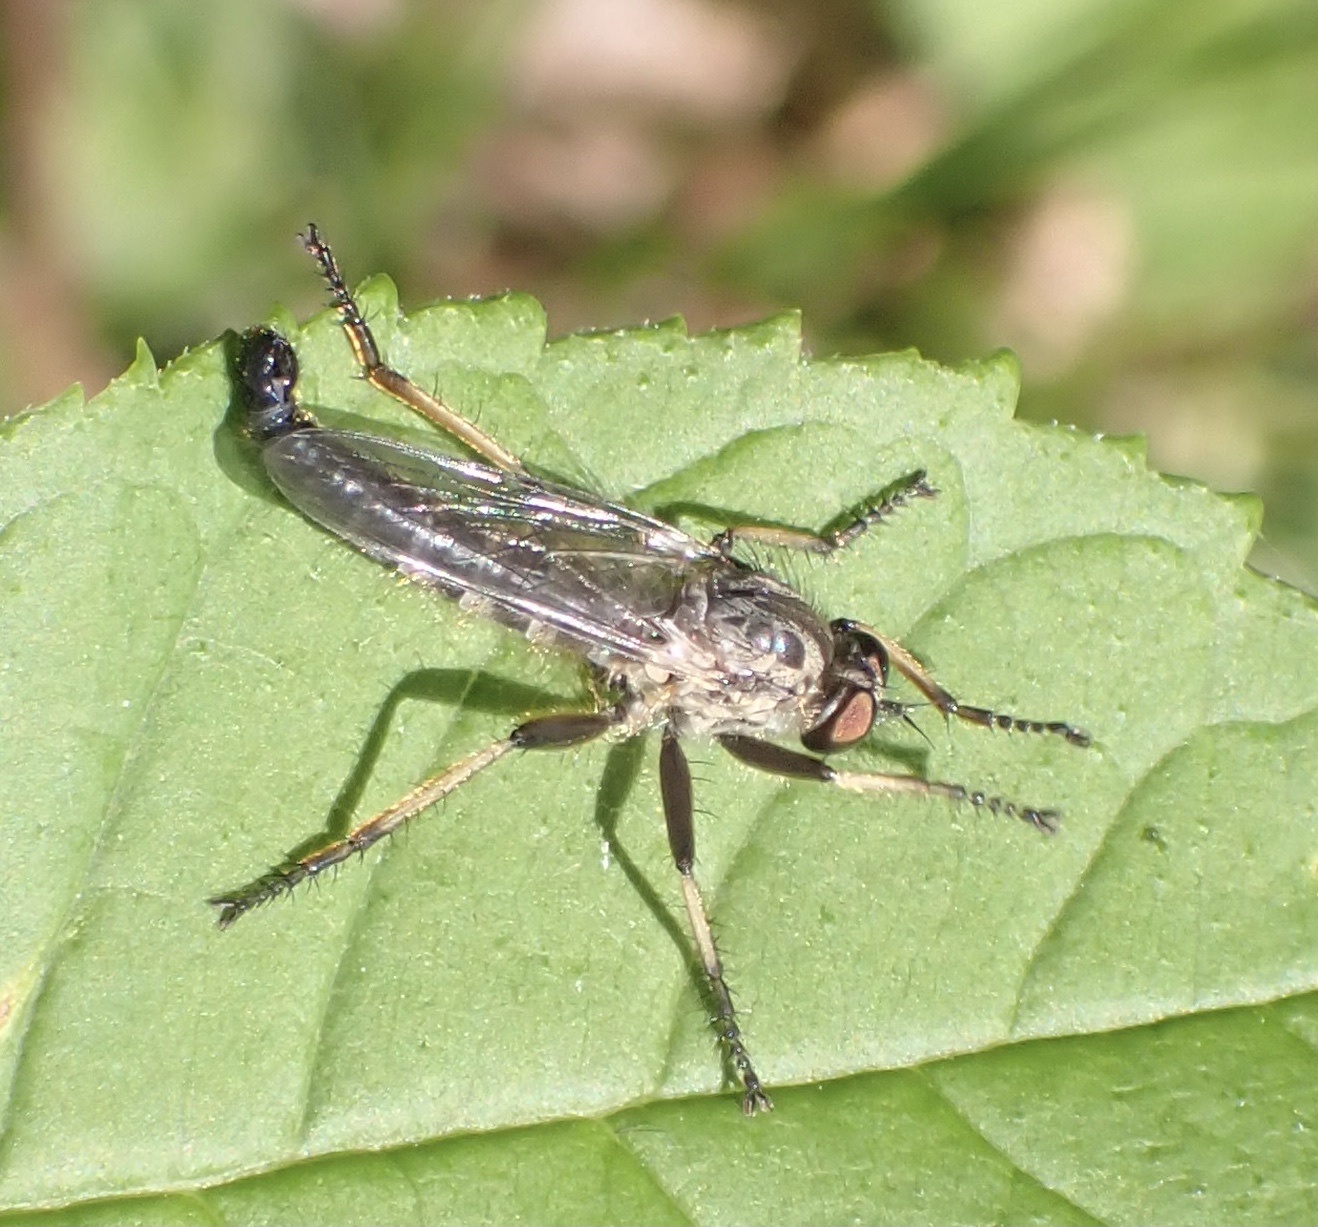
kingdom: Animalia
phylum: Arthropoda
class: Insecta
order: Diptera
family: Asilidae
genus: Neoitamus
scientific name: Neoitamus cyanurus
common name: Common awl robberfly
